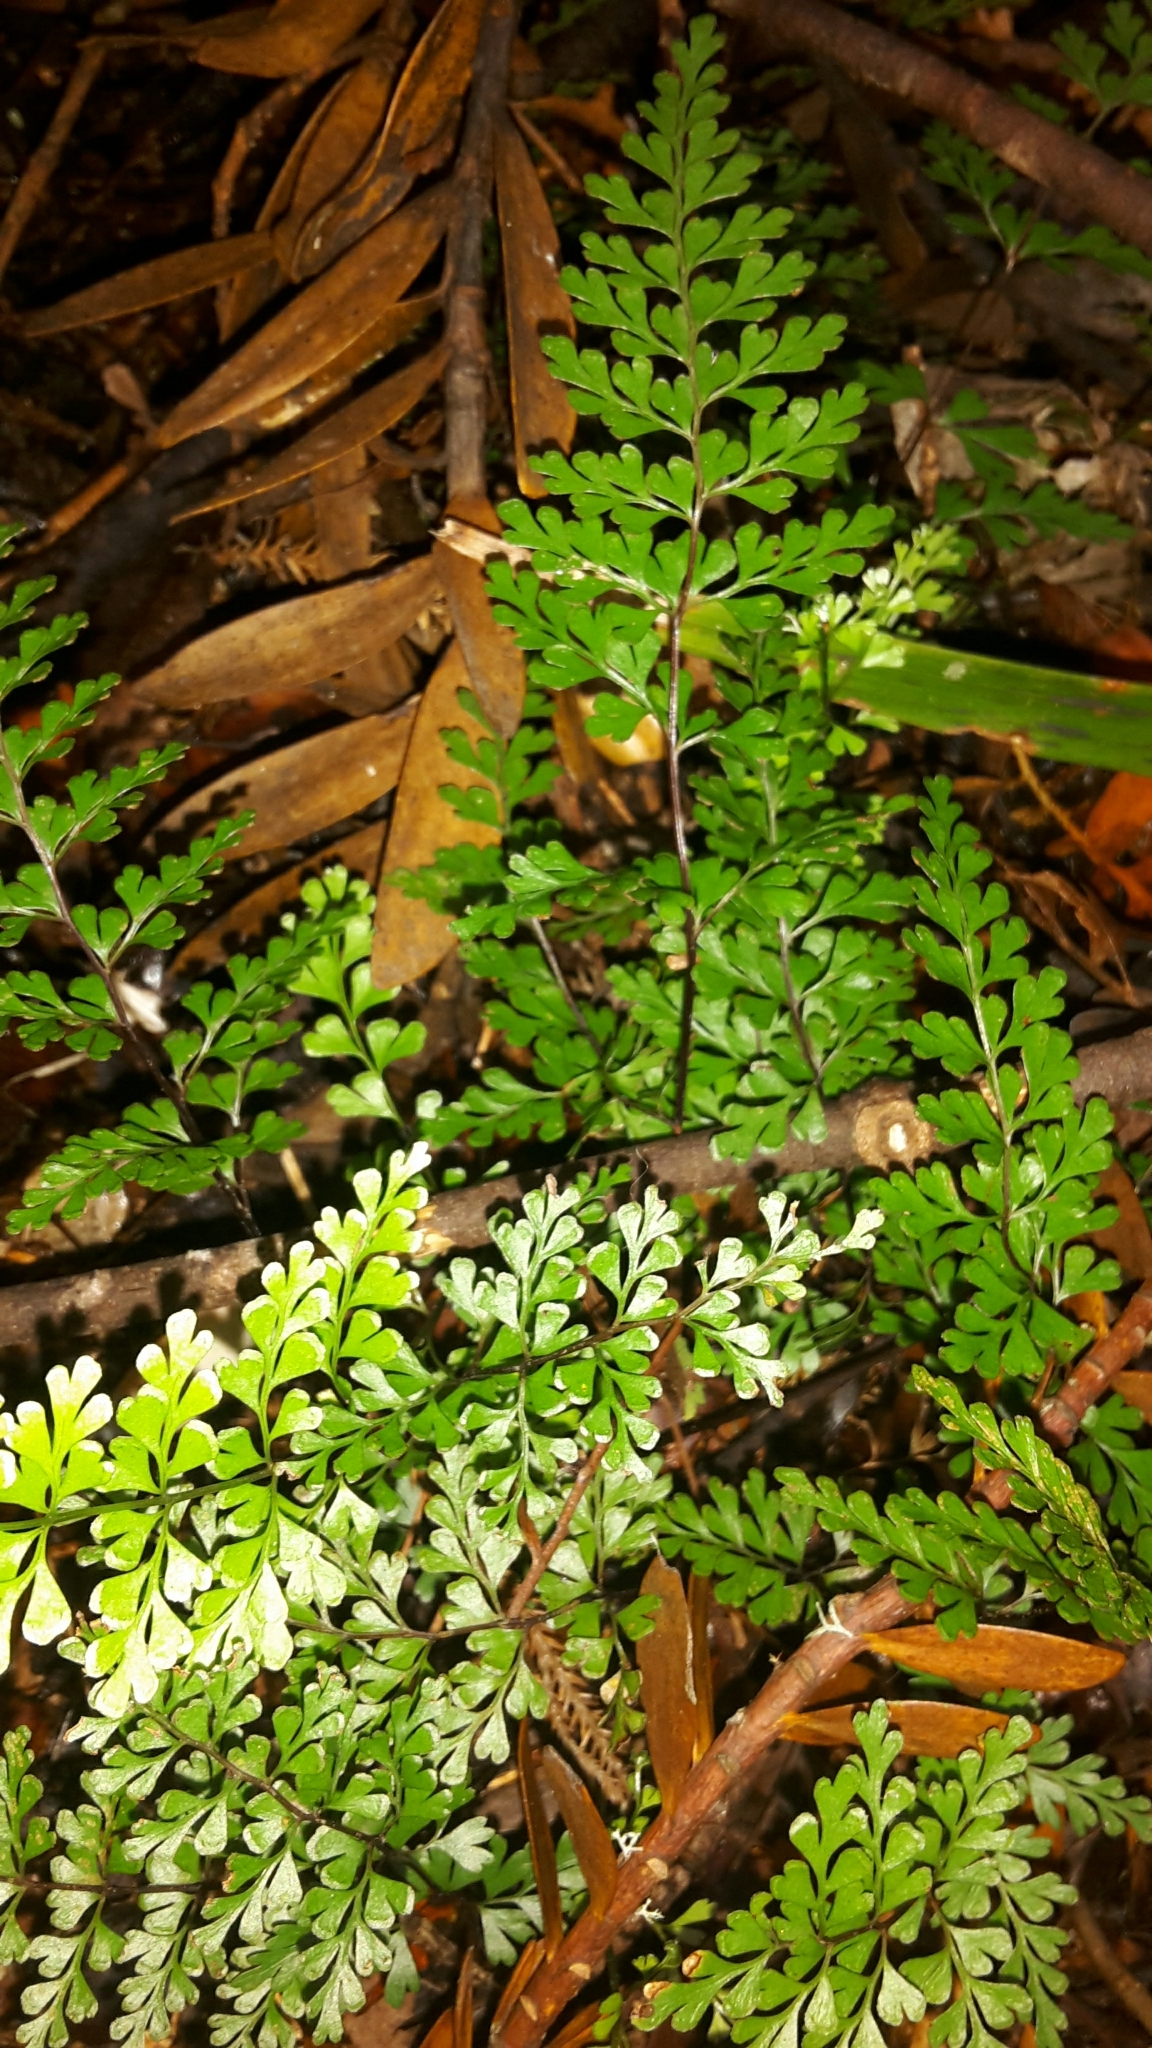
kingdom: Plantae
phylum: Tracheophyta
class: Polypodiopsida
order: Polypodiales
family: Lindsaeaceae
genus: Lindsaea
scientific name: Lindsaea trichomanoides
